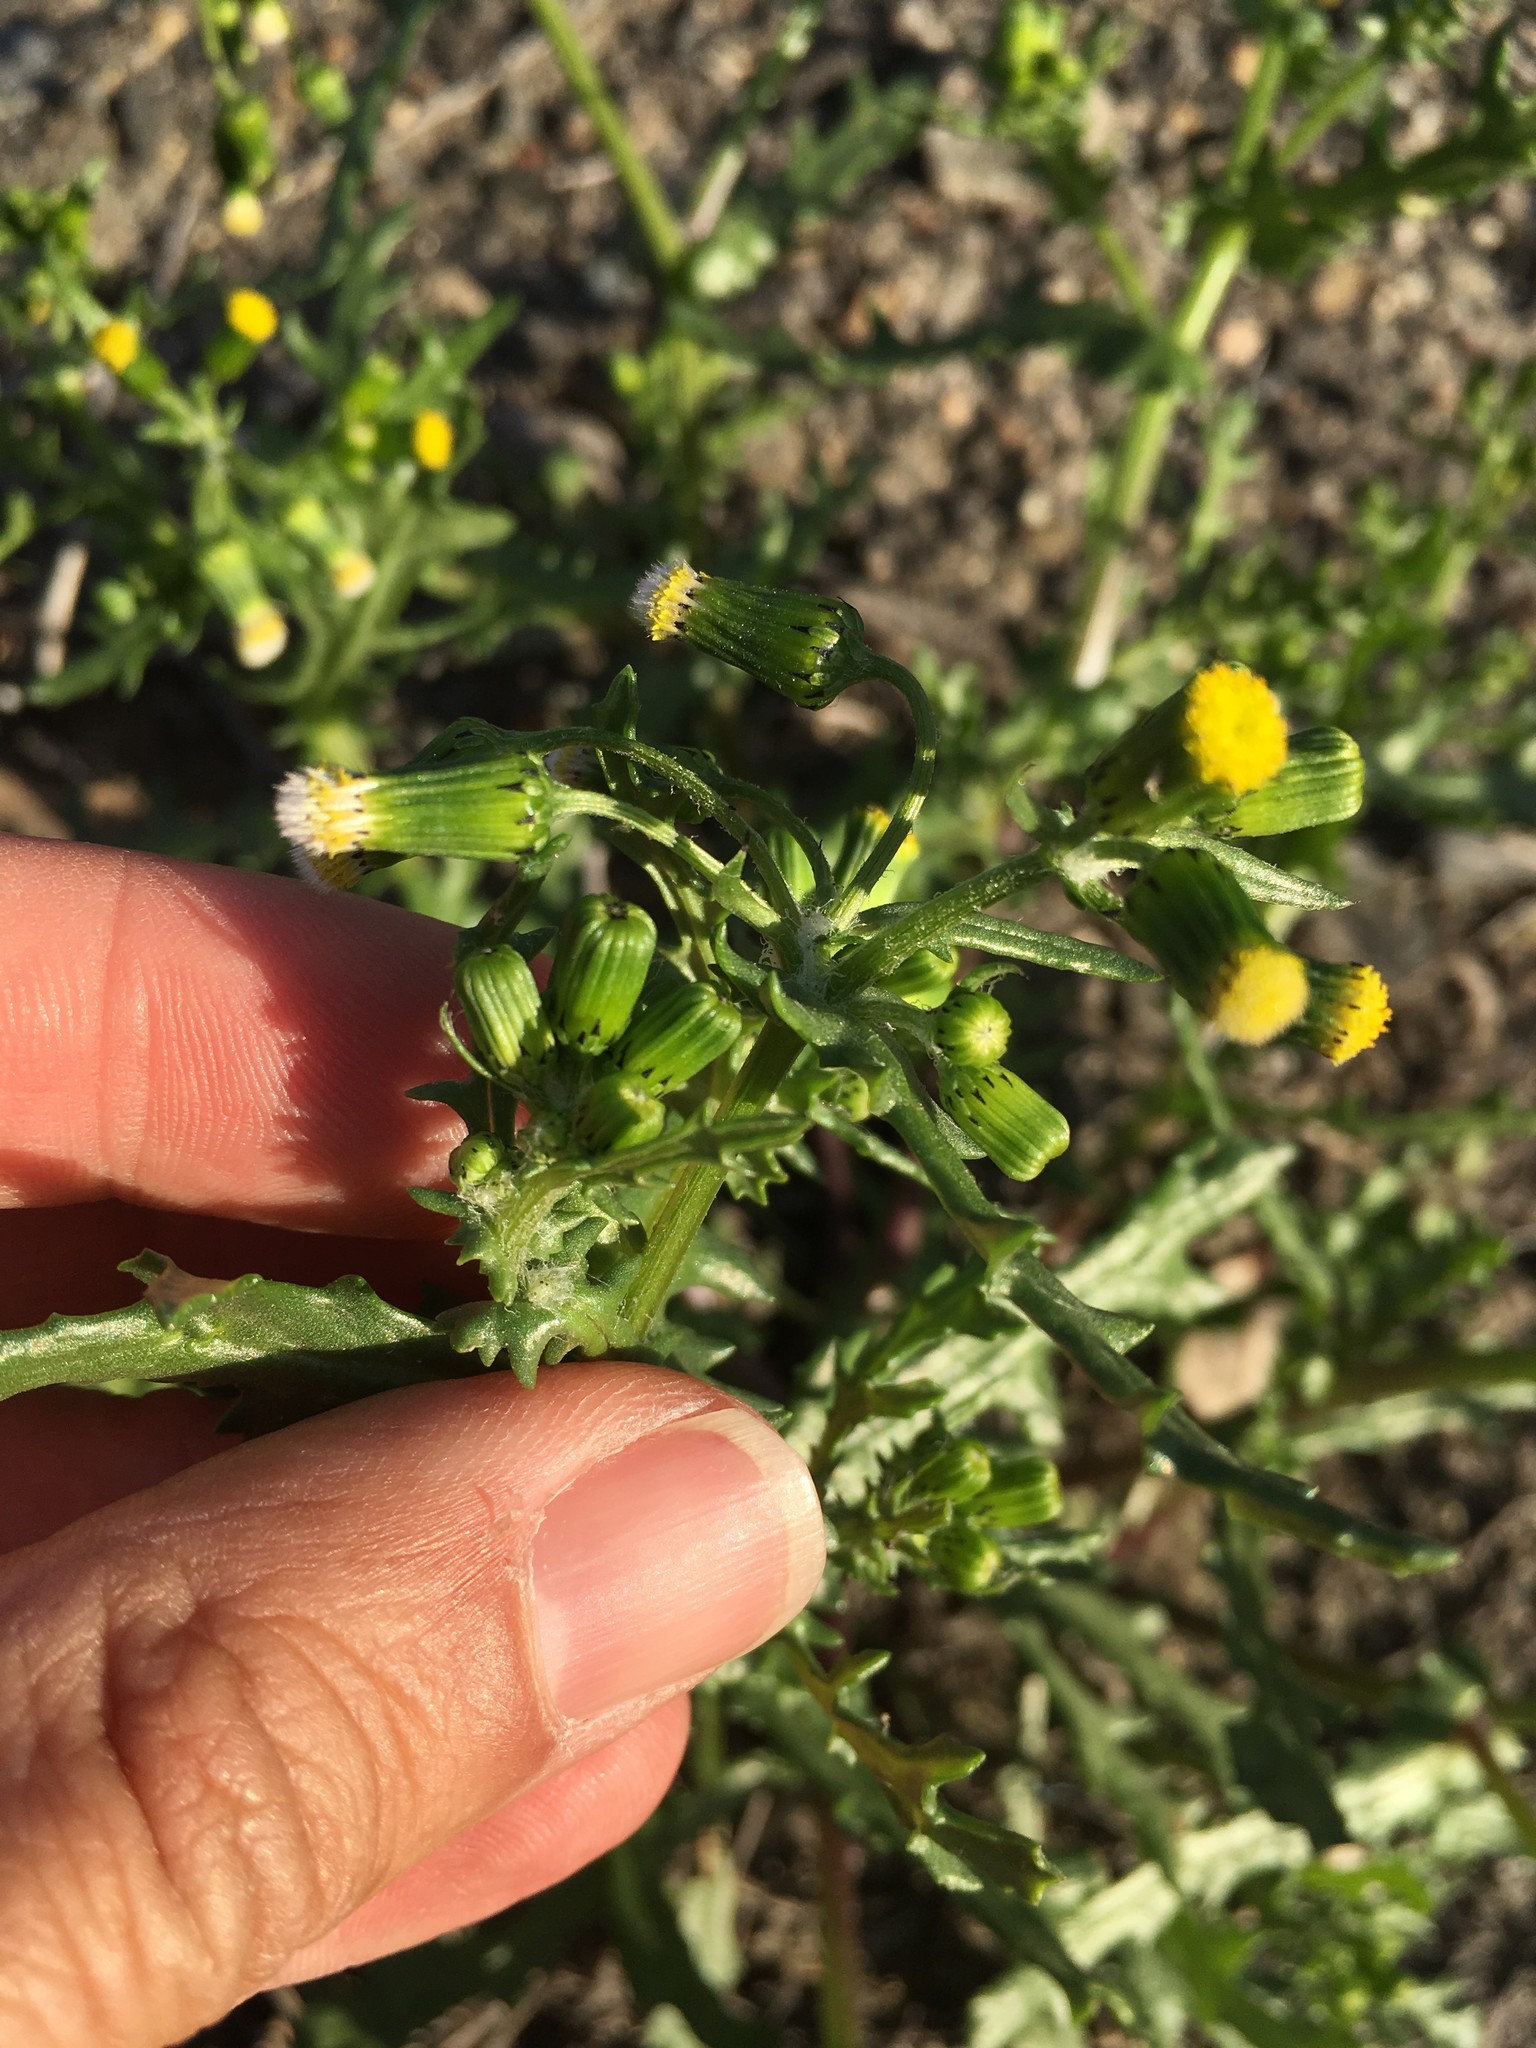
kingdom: Plantae
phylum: Tracheophyta
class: Magnoliopsida
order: Asterales
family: Asteraceae
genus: Senecio
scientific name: Senecio vulgaris
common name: Old-man-in-the-spring
